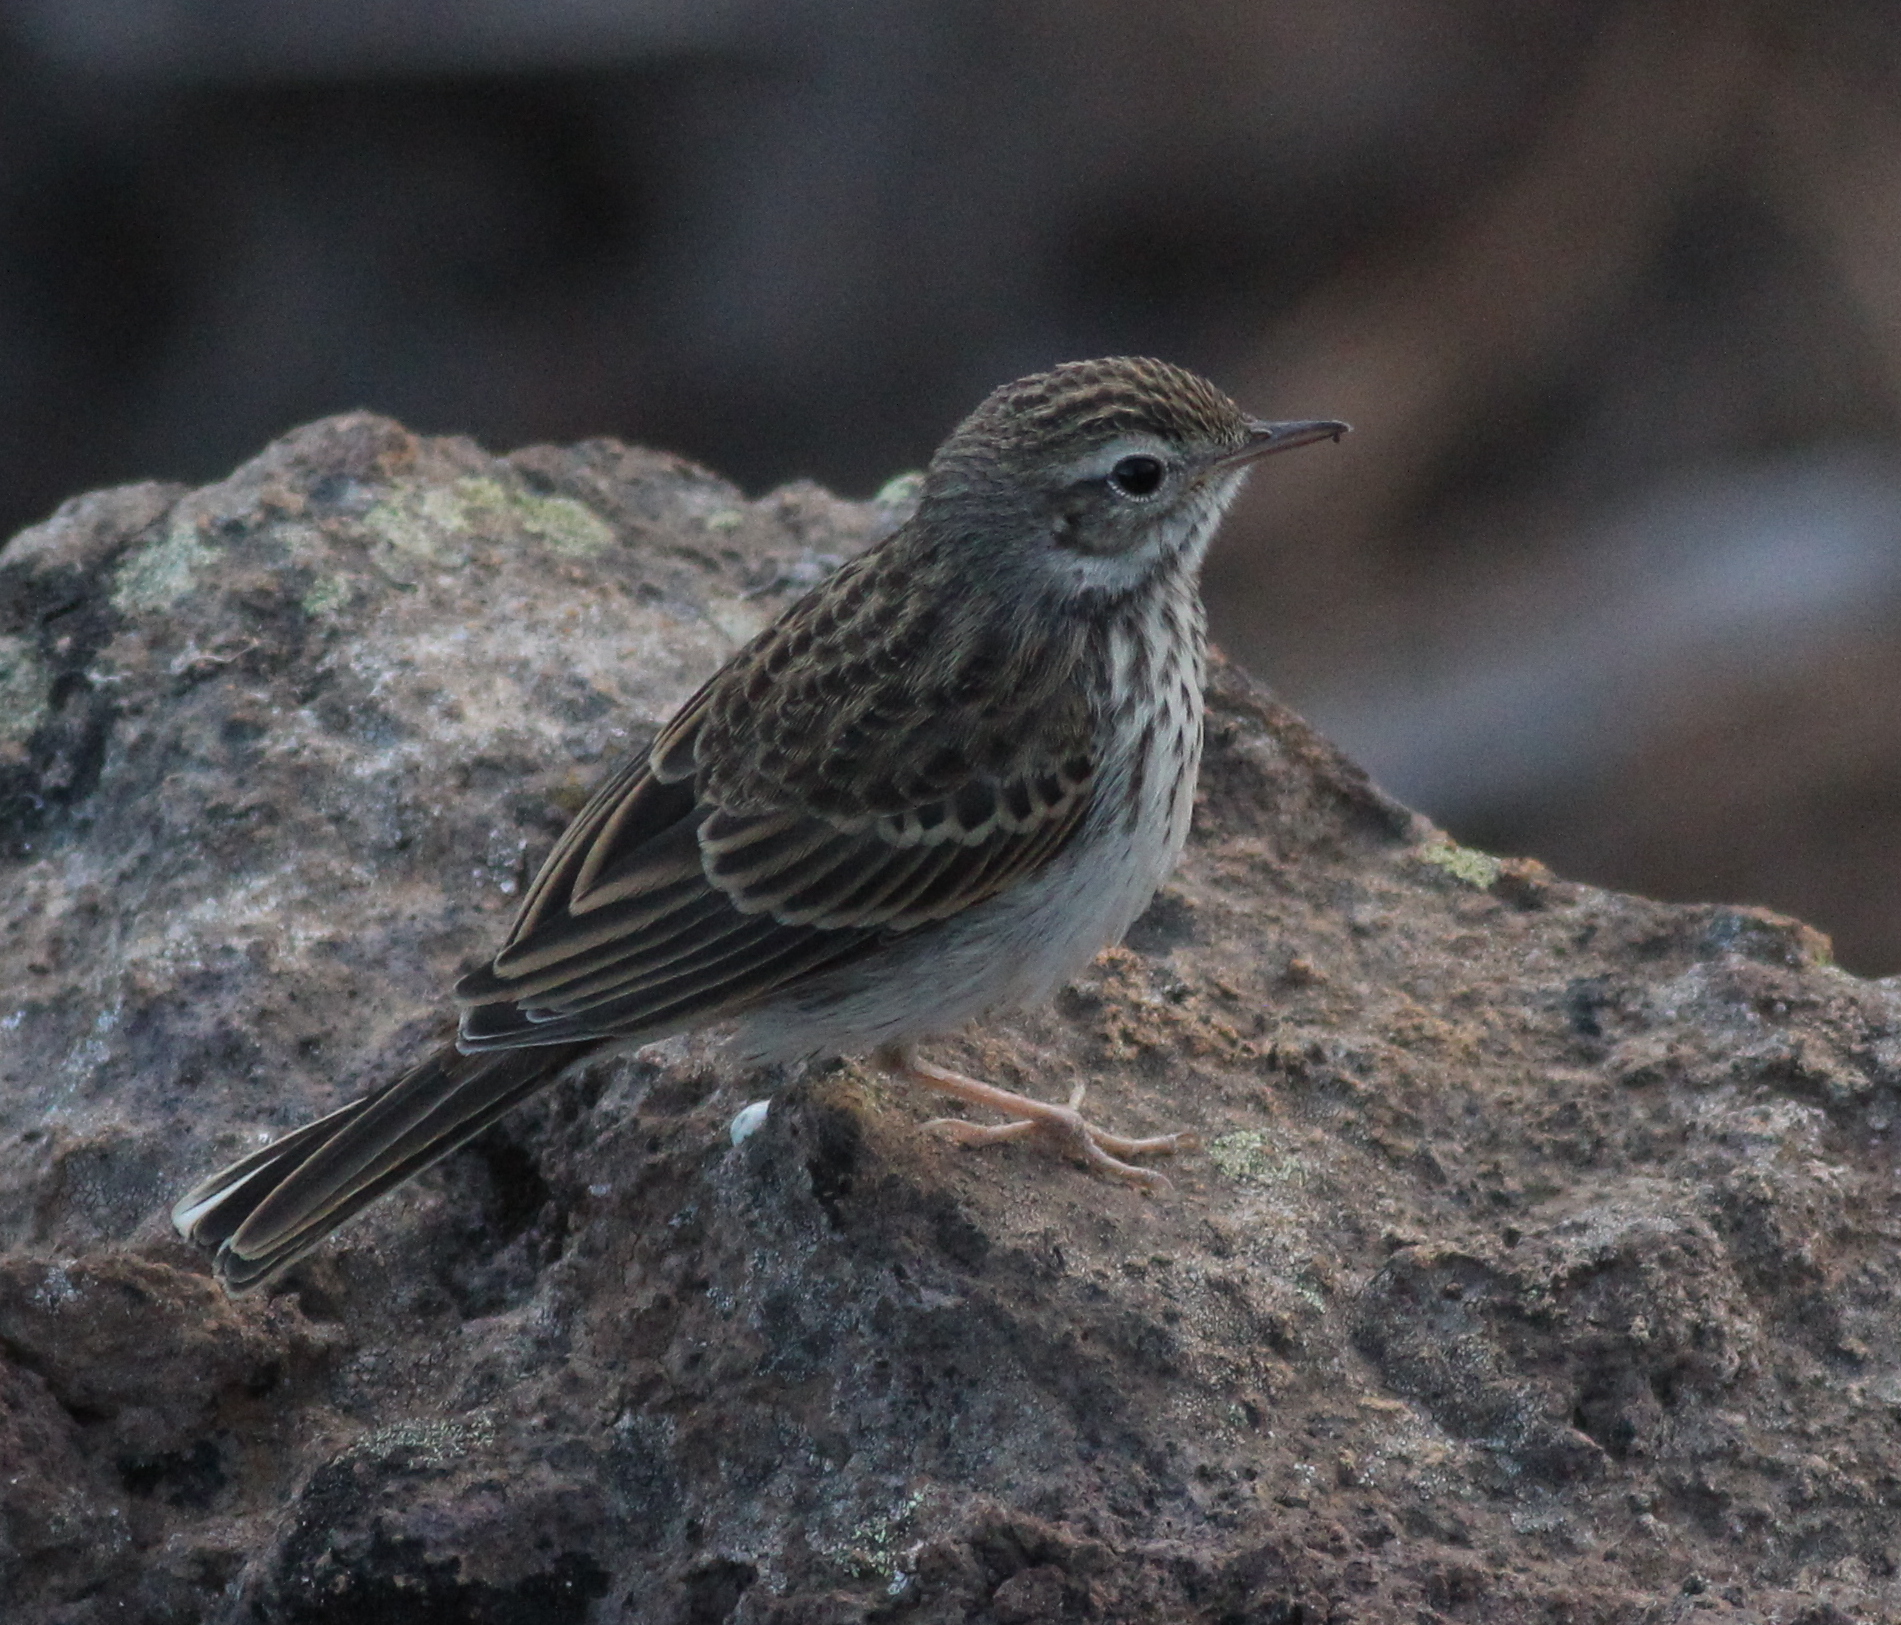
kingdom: Animalia
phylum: Chordata
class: Aves
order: Passeriformes
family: Motacillidae
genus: Anthus
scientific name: Anthus berthelotii
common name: Berthelot's pipit
